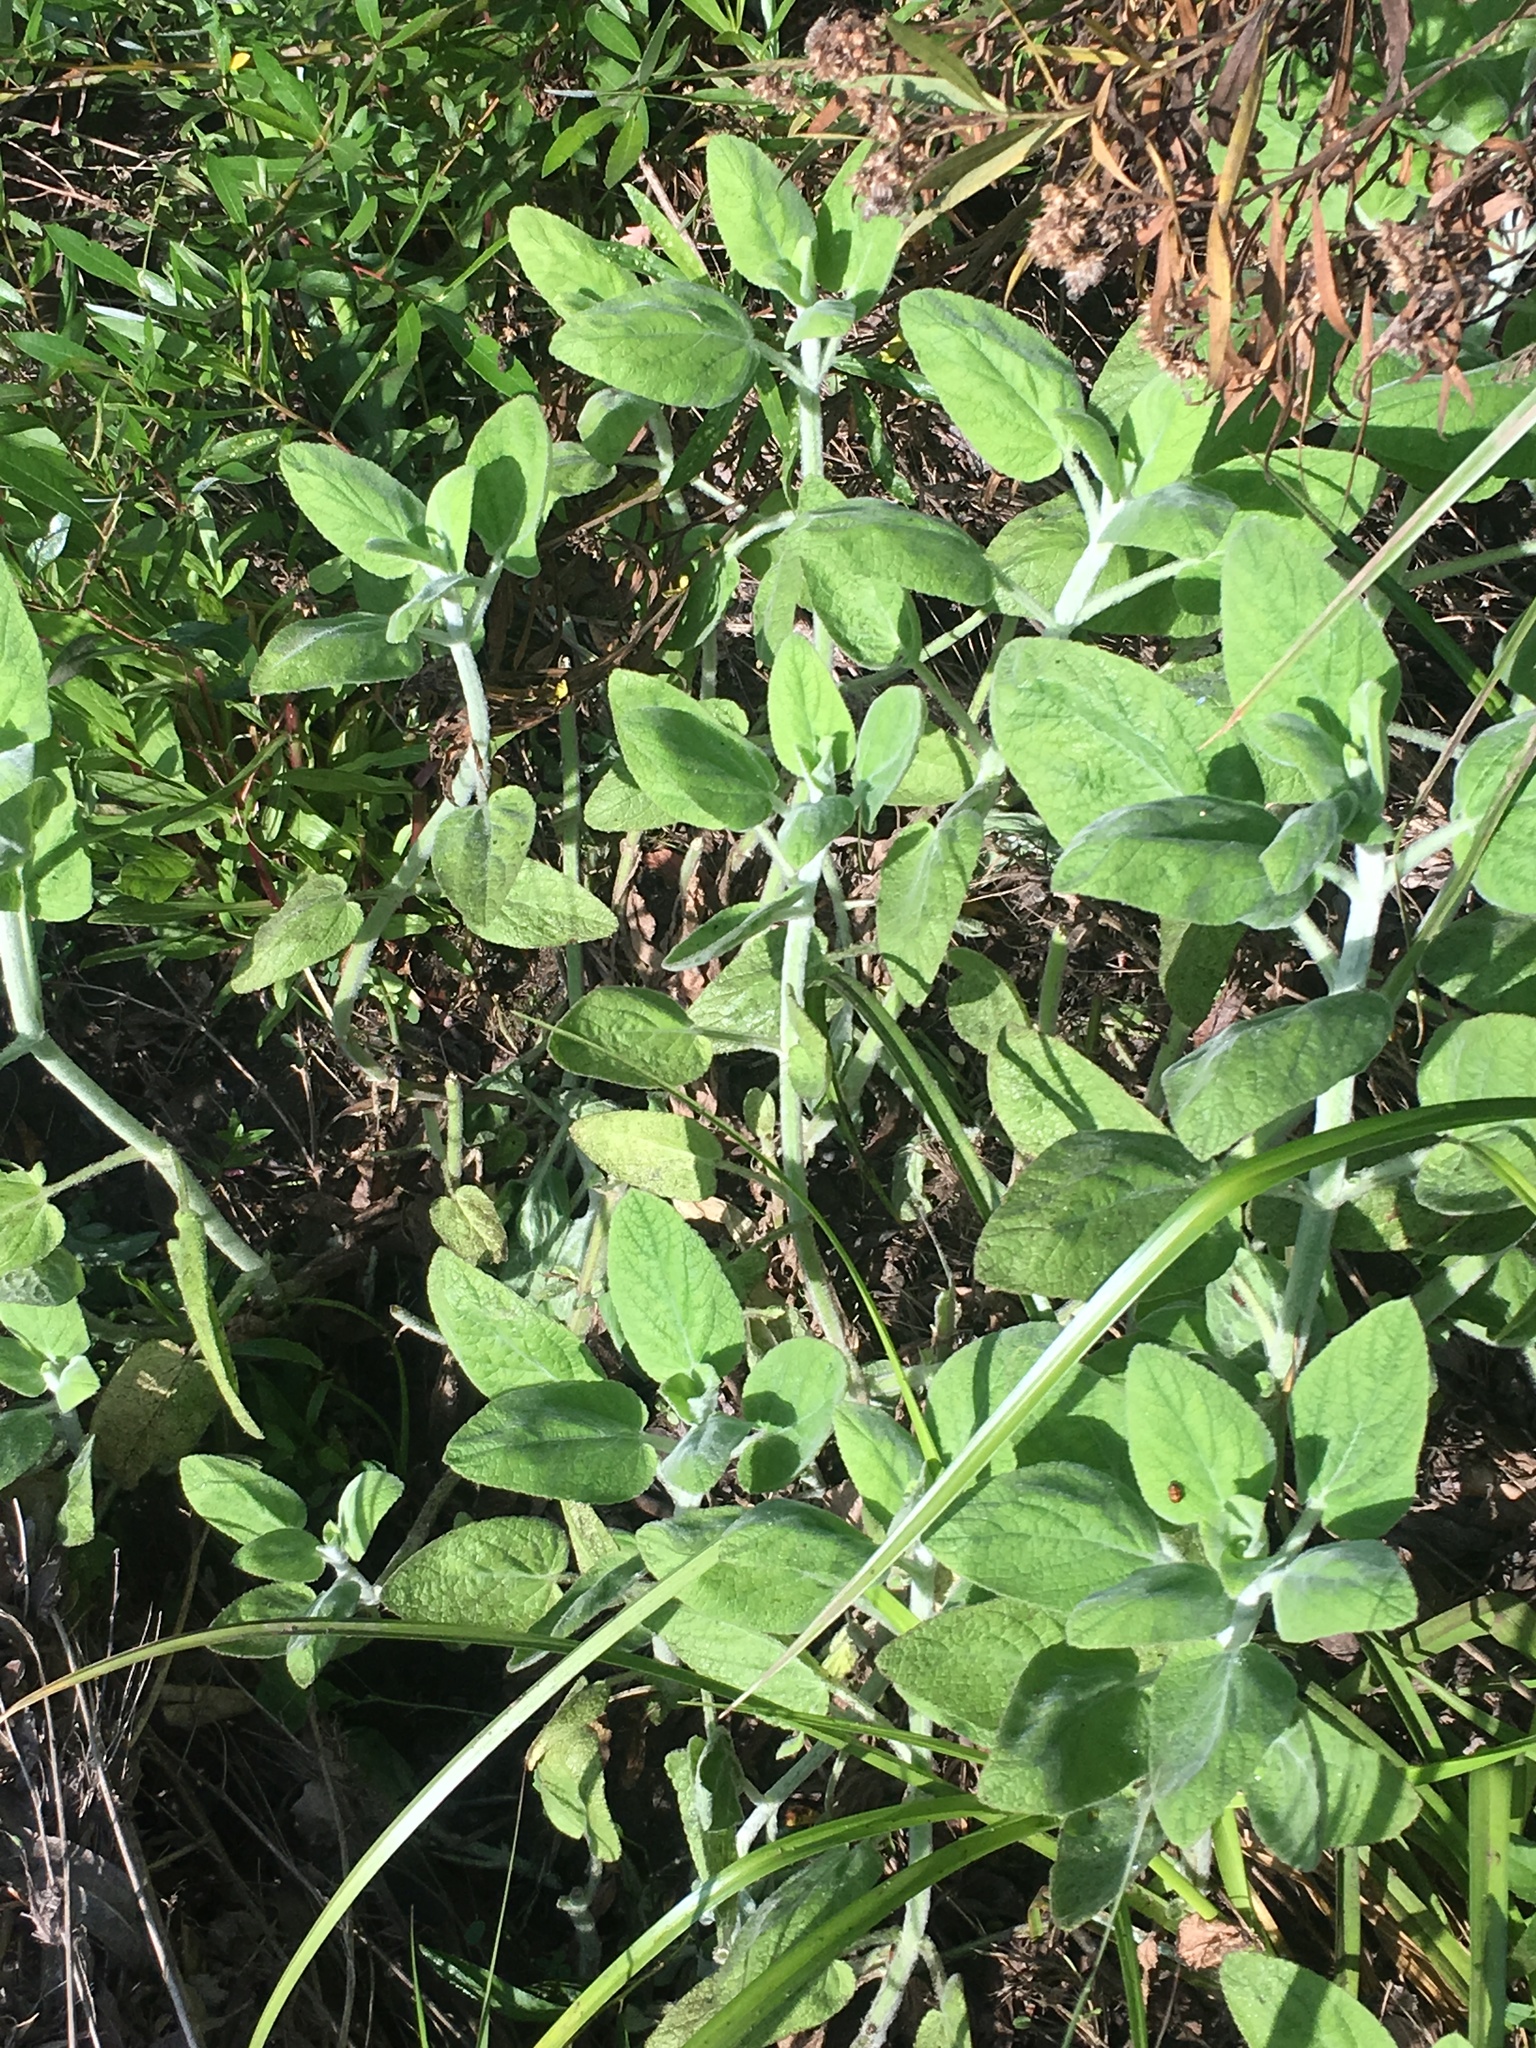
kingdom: Plantae
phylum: Tracheophyta
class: Magnoliopsida
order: Lamiales
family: Lamiaceae
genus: Stachys
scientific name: Stachys albens
